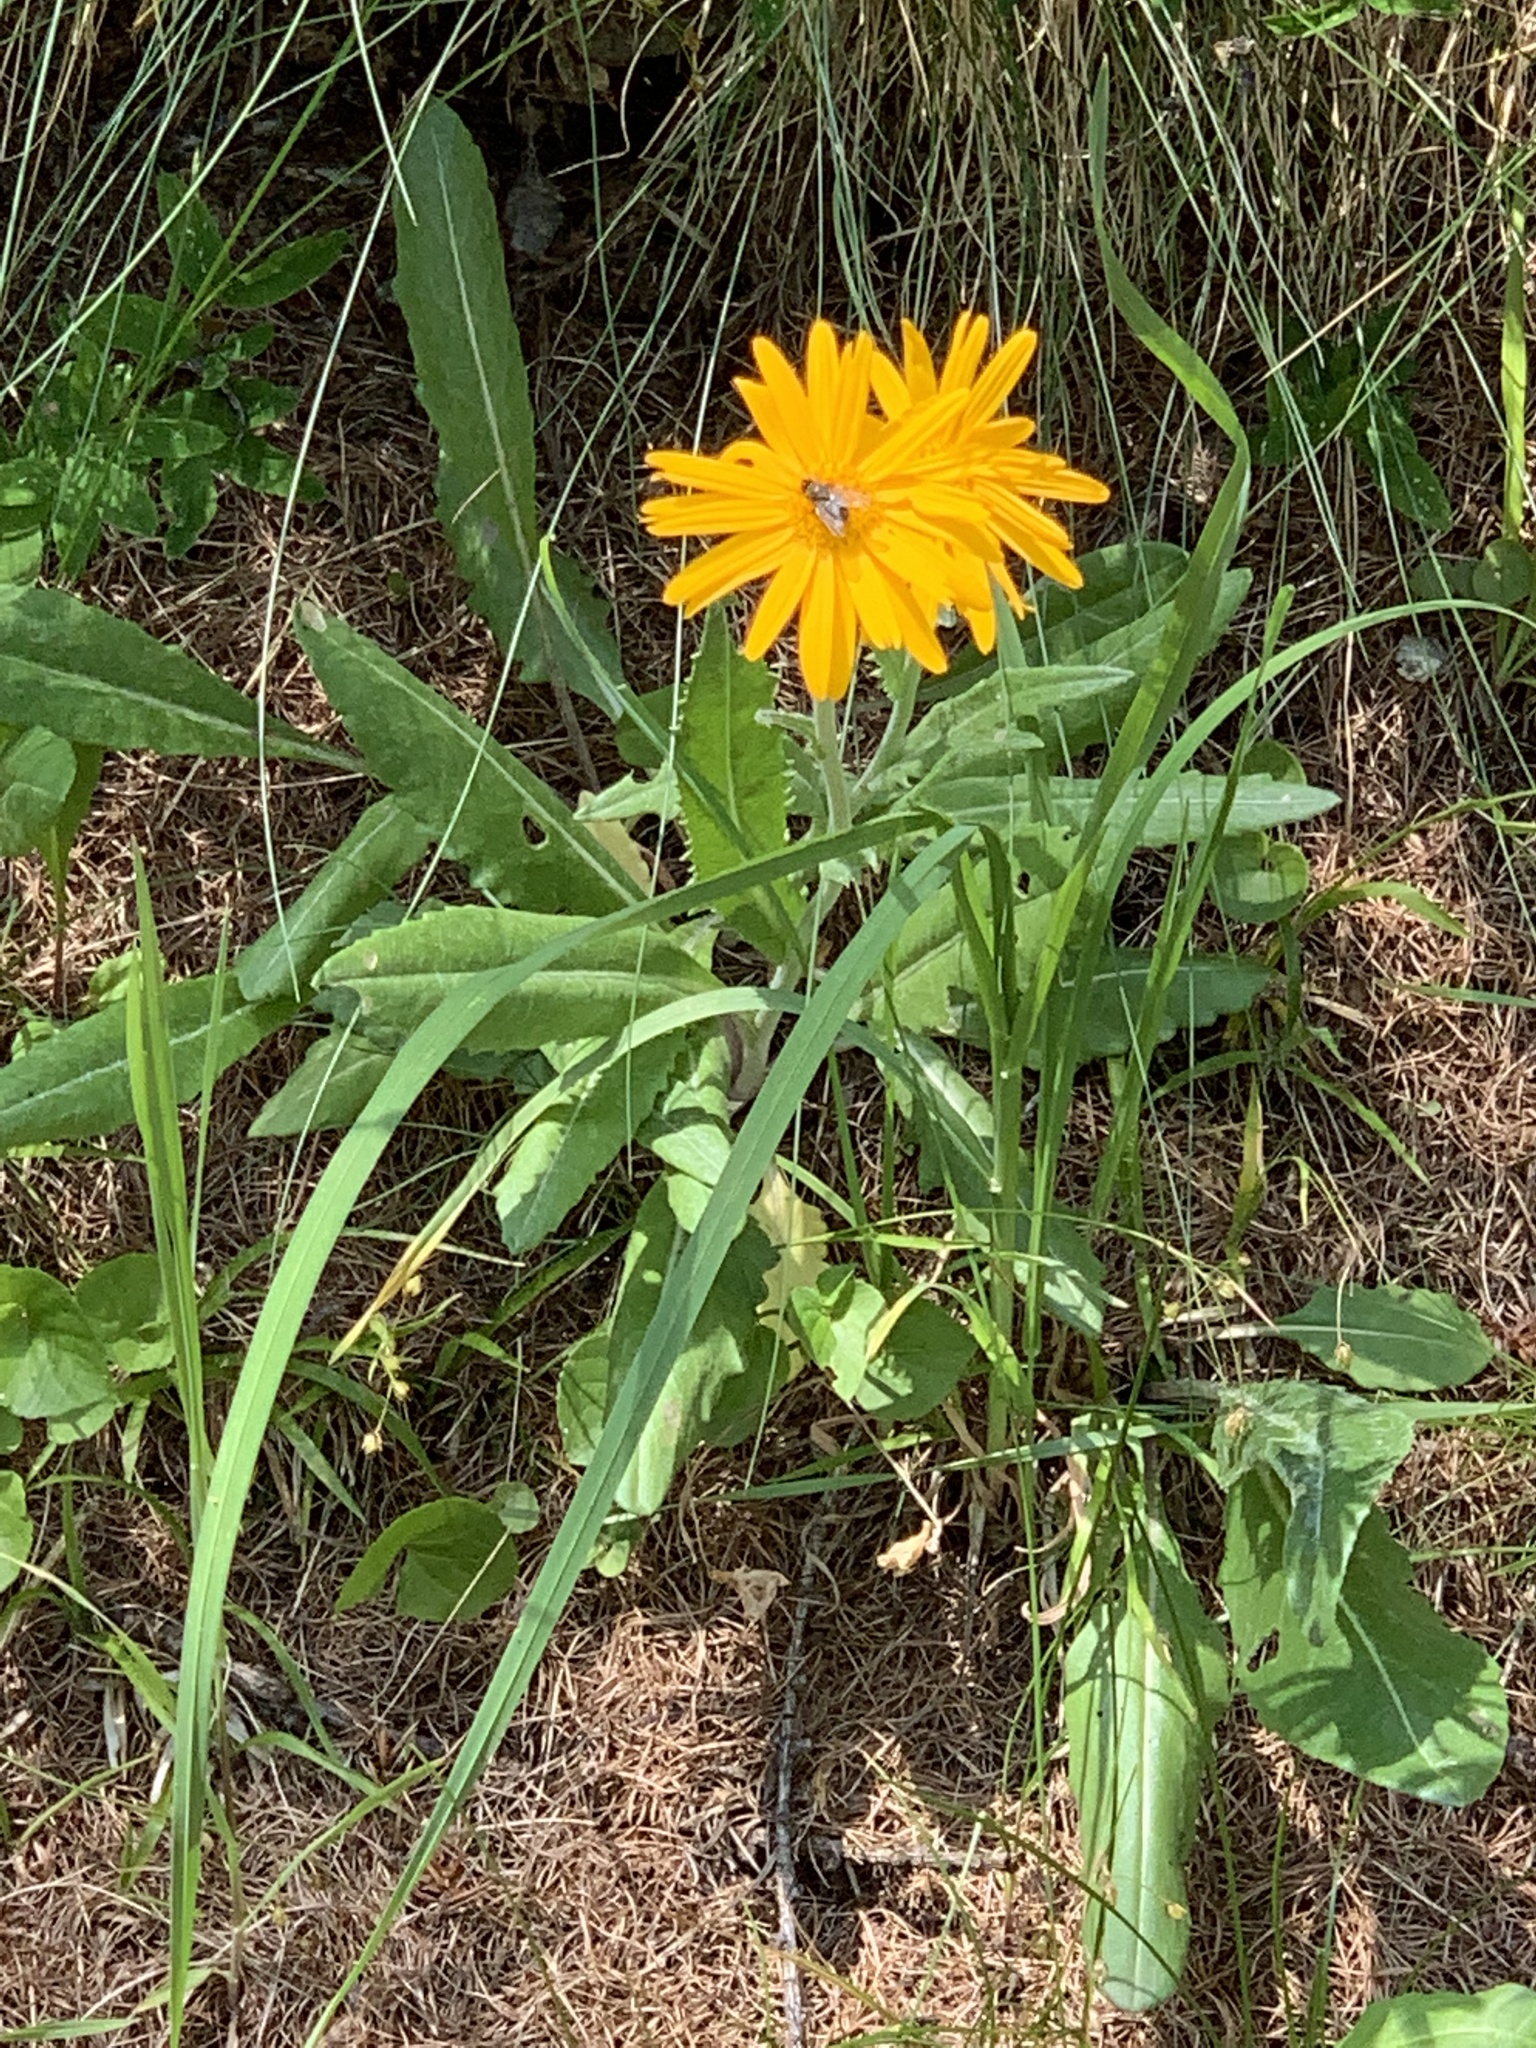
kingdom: Plantae
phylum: Tracheophyta
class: Magnoliopsida
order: Asterales
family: Asteraceae
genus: Senecio
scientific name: Senecio doronicum
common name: Chamois ragwort
